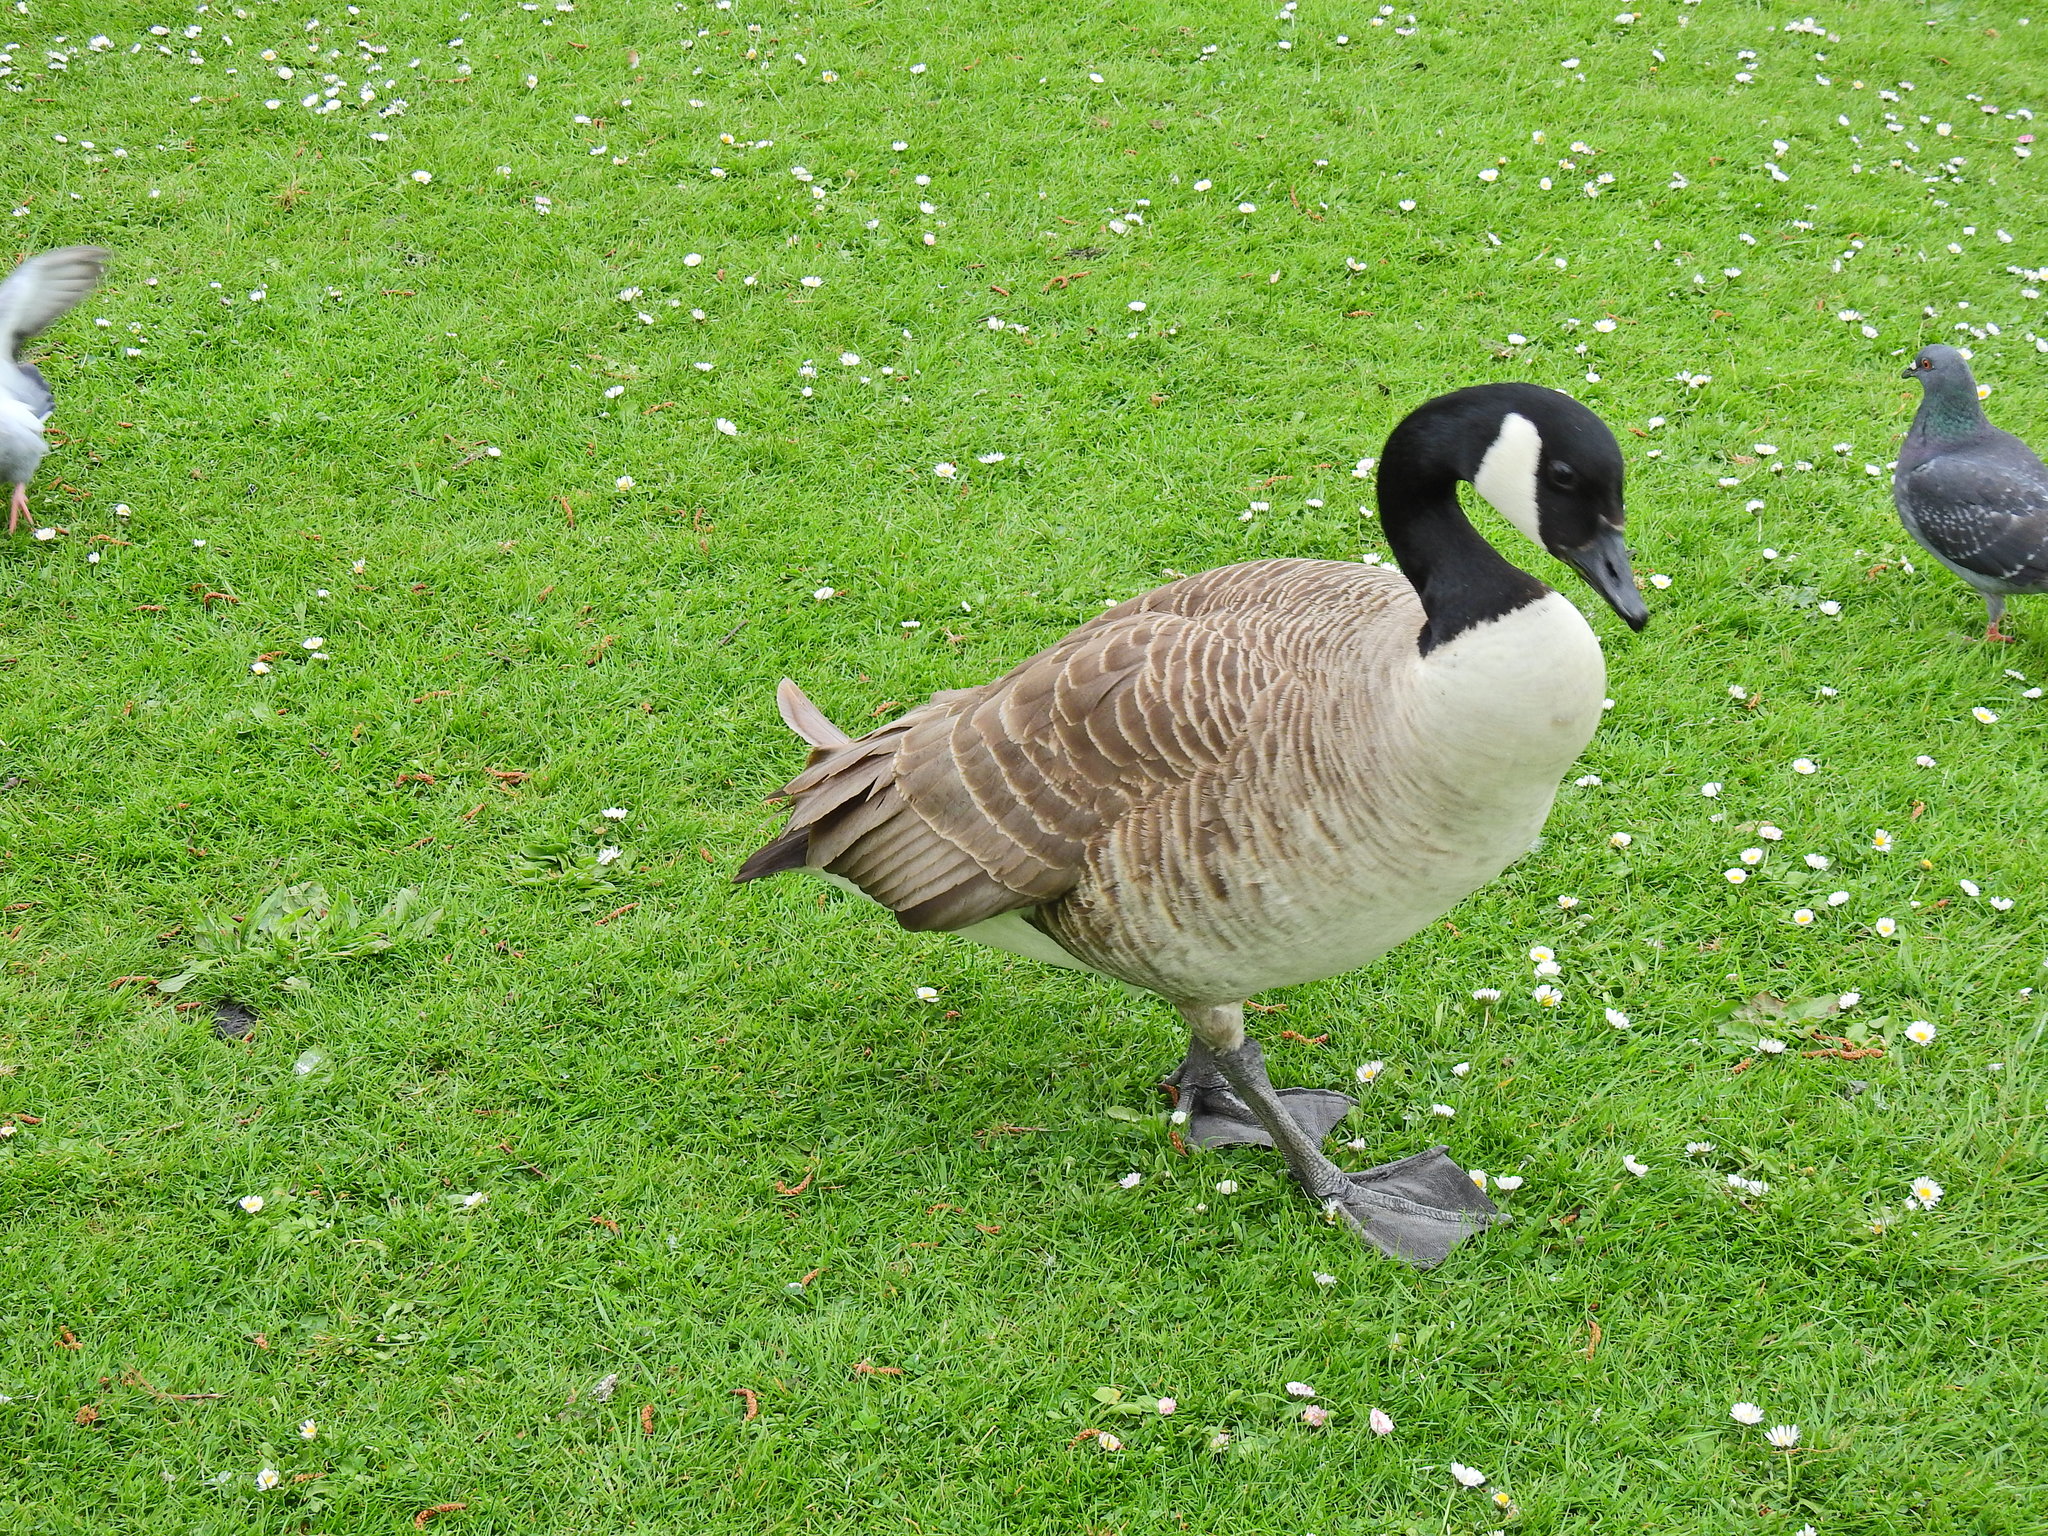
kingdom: Animalia
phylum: Chordata
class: Aves
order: Anseriformes
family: Anatidae
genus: Branta
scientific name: Branta canadensis
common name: Canada goose
